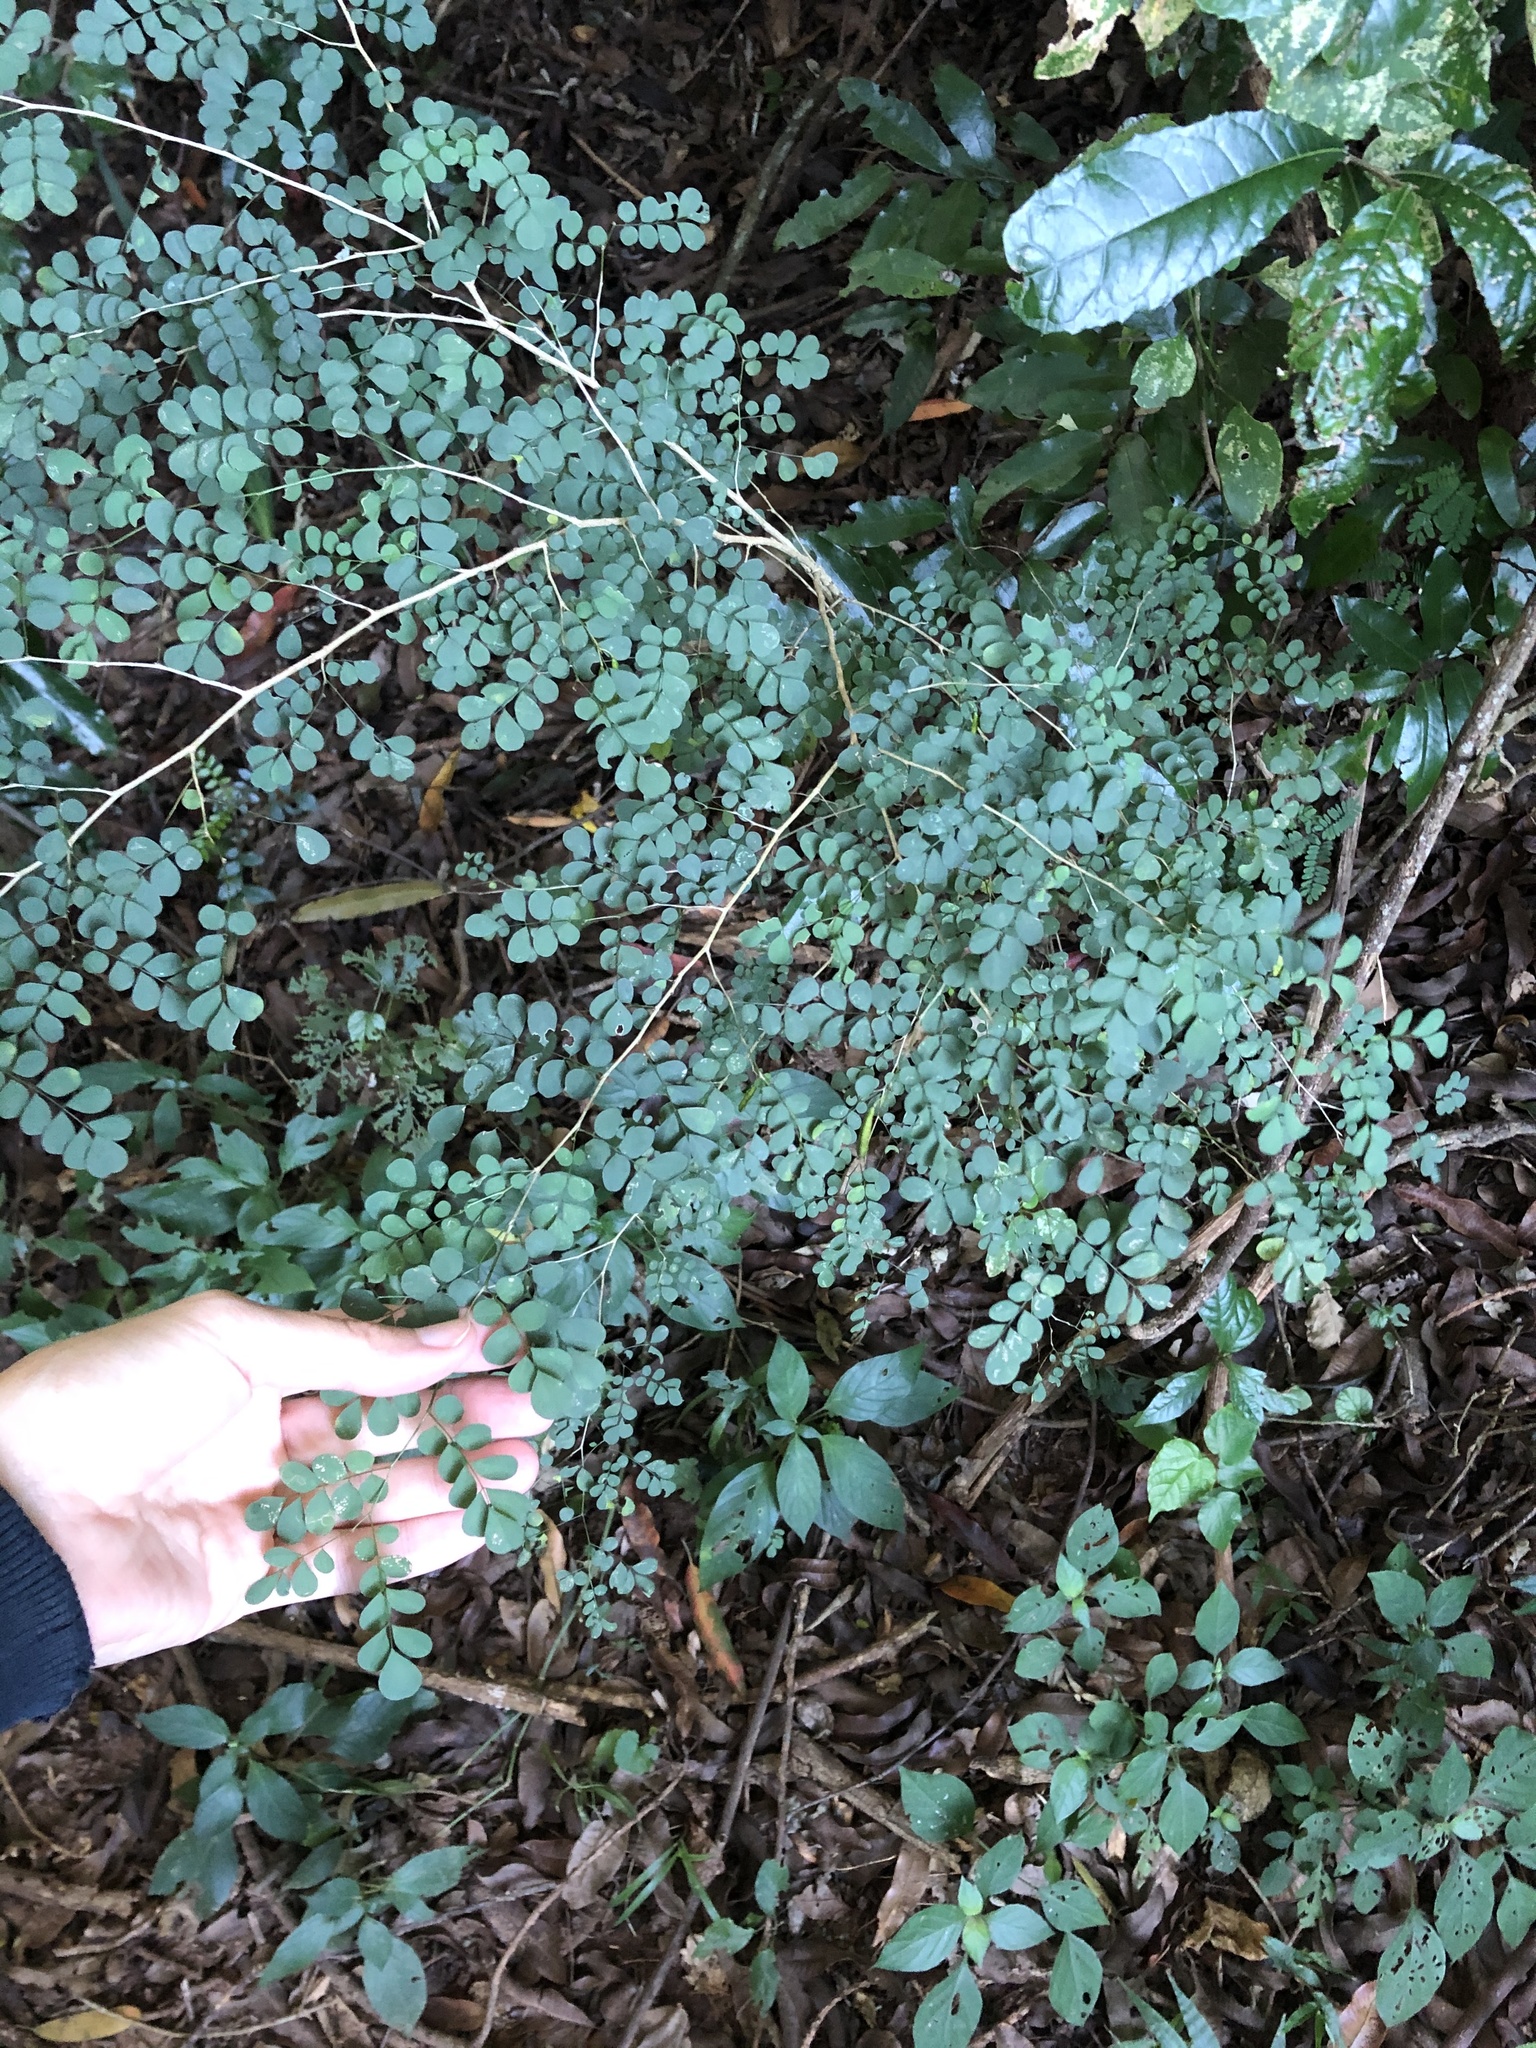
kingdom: Plantae
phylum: Tracheophyta
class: Magnoliopsida
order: Fabales
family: Fabaceae
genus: Indigofera
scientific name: Indigofera
